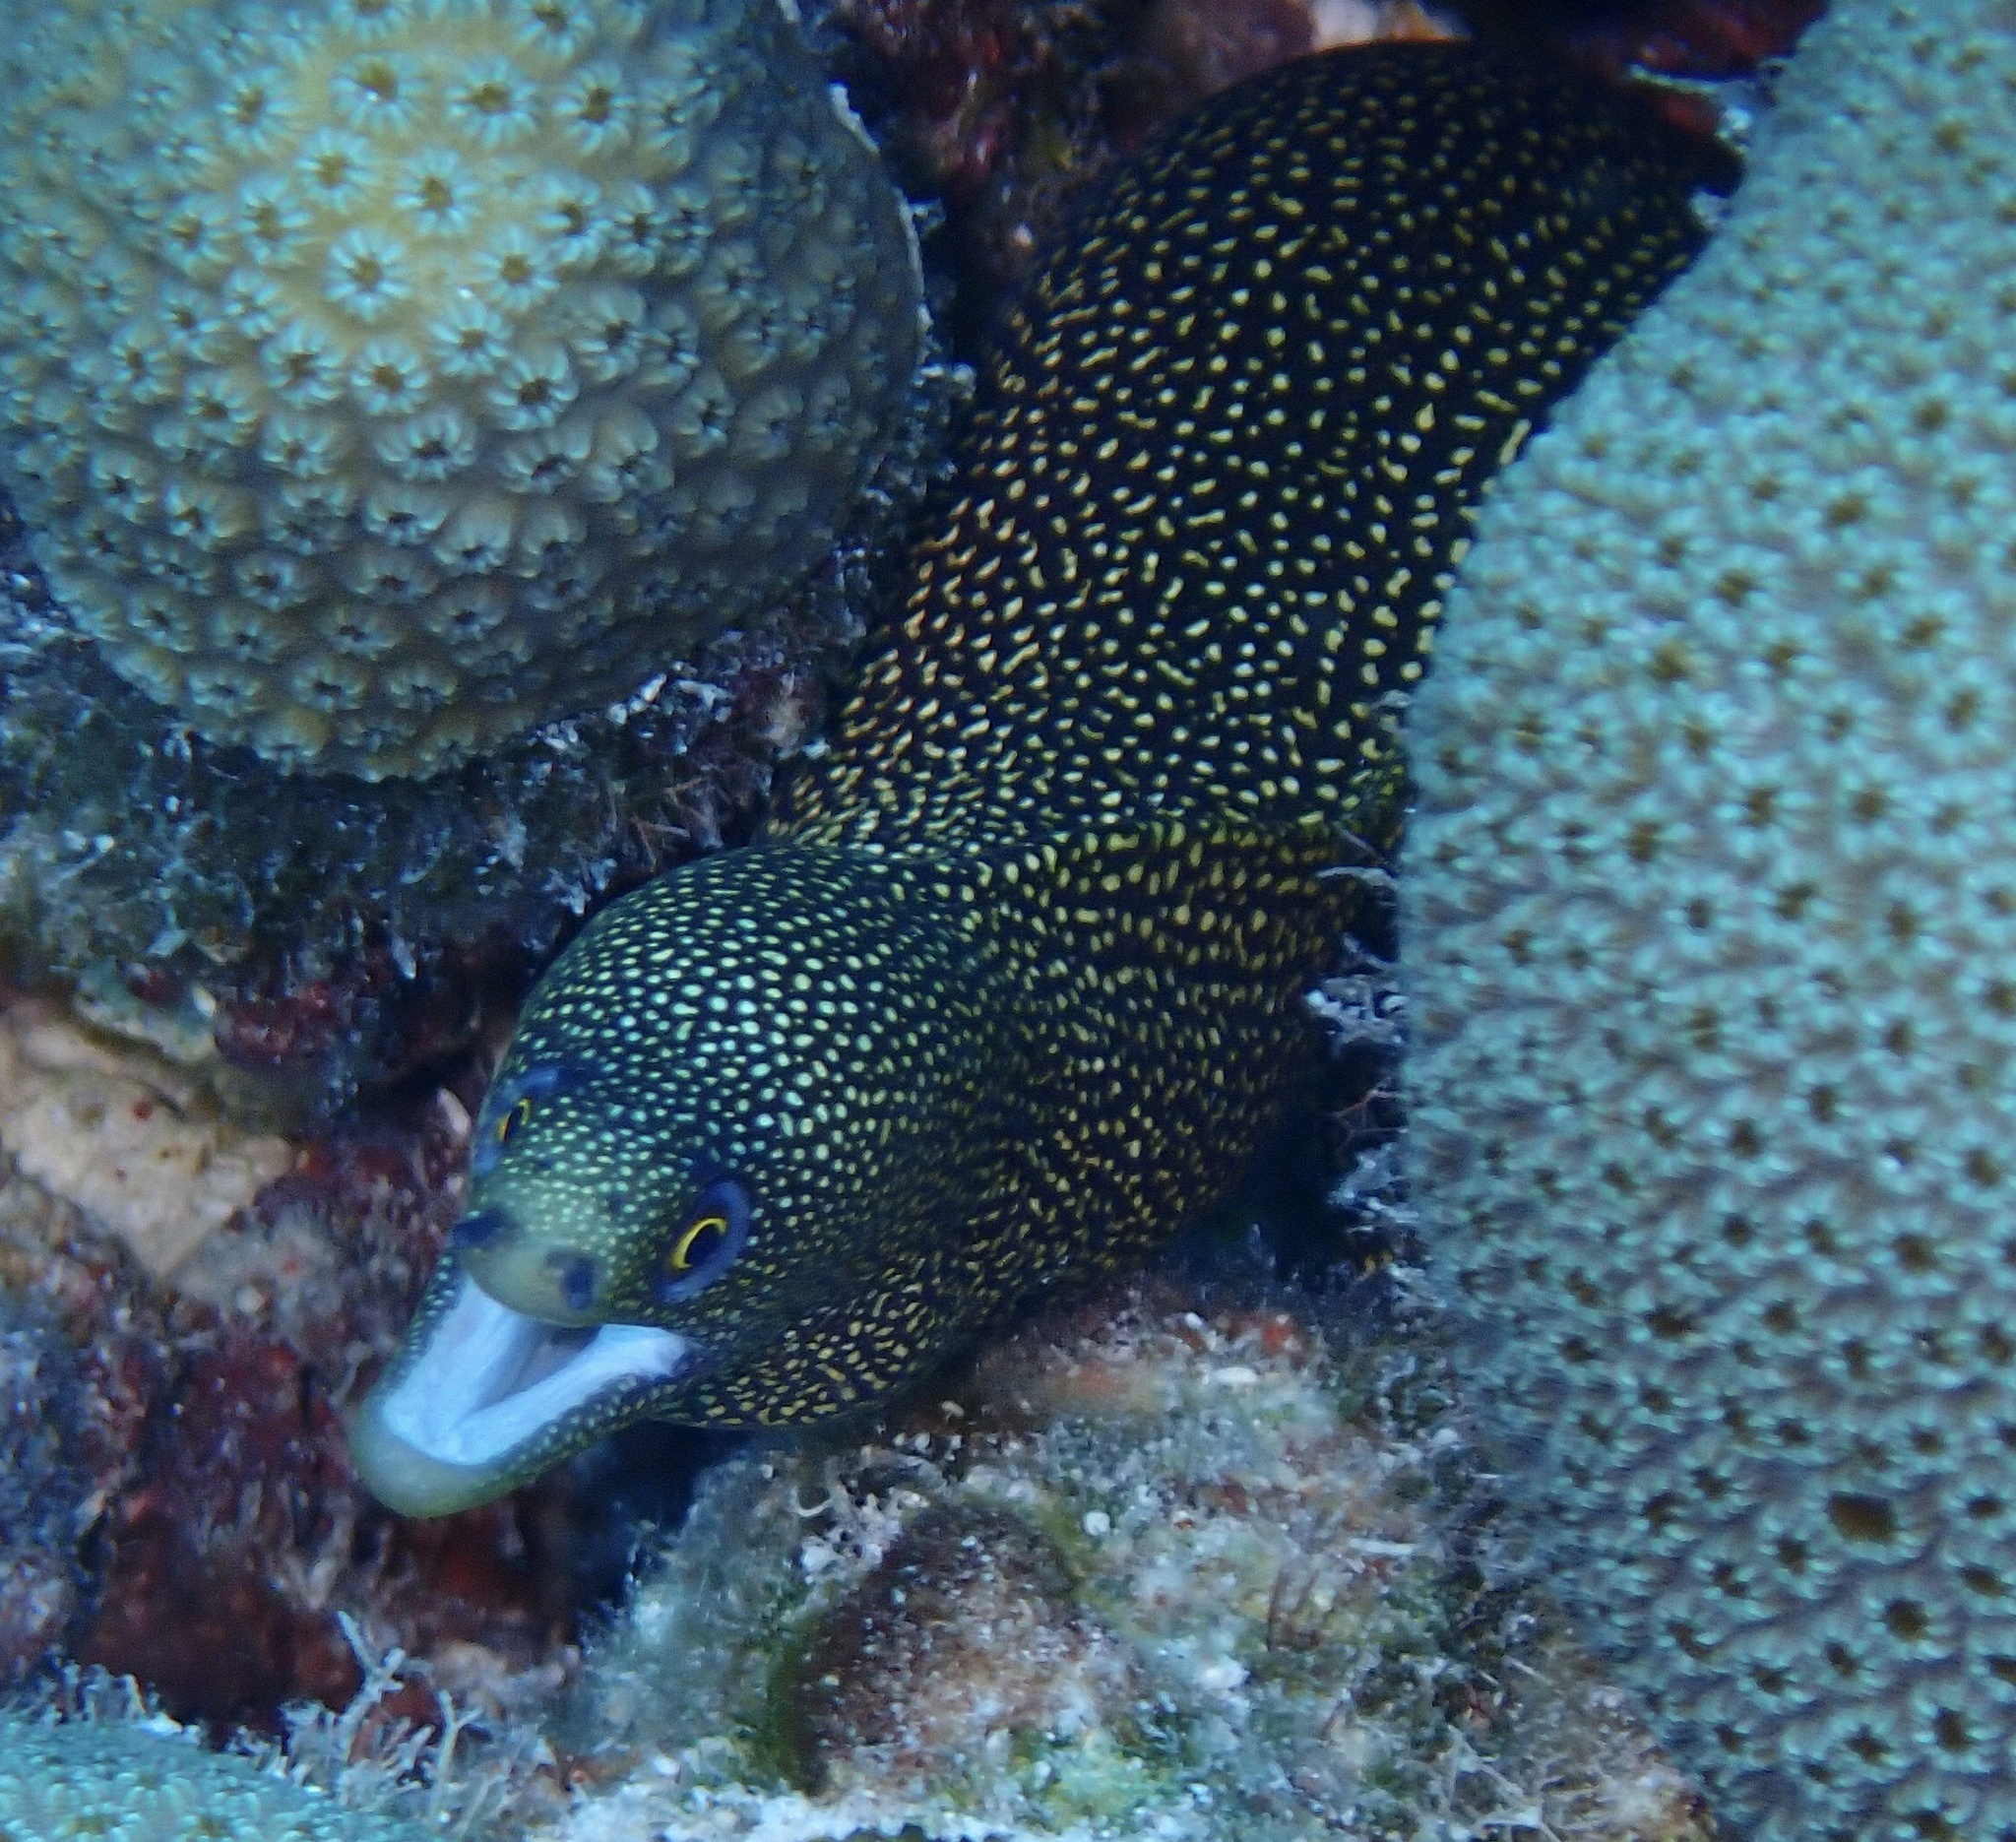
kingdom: Animalia
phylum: Chordata
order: Anguilliformes
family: Muraenidae
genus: Gymnothorax
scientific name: Gymnothorax miliaris
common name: Goldentail moray
